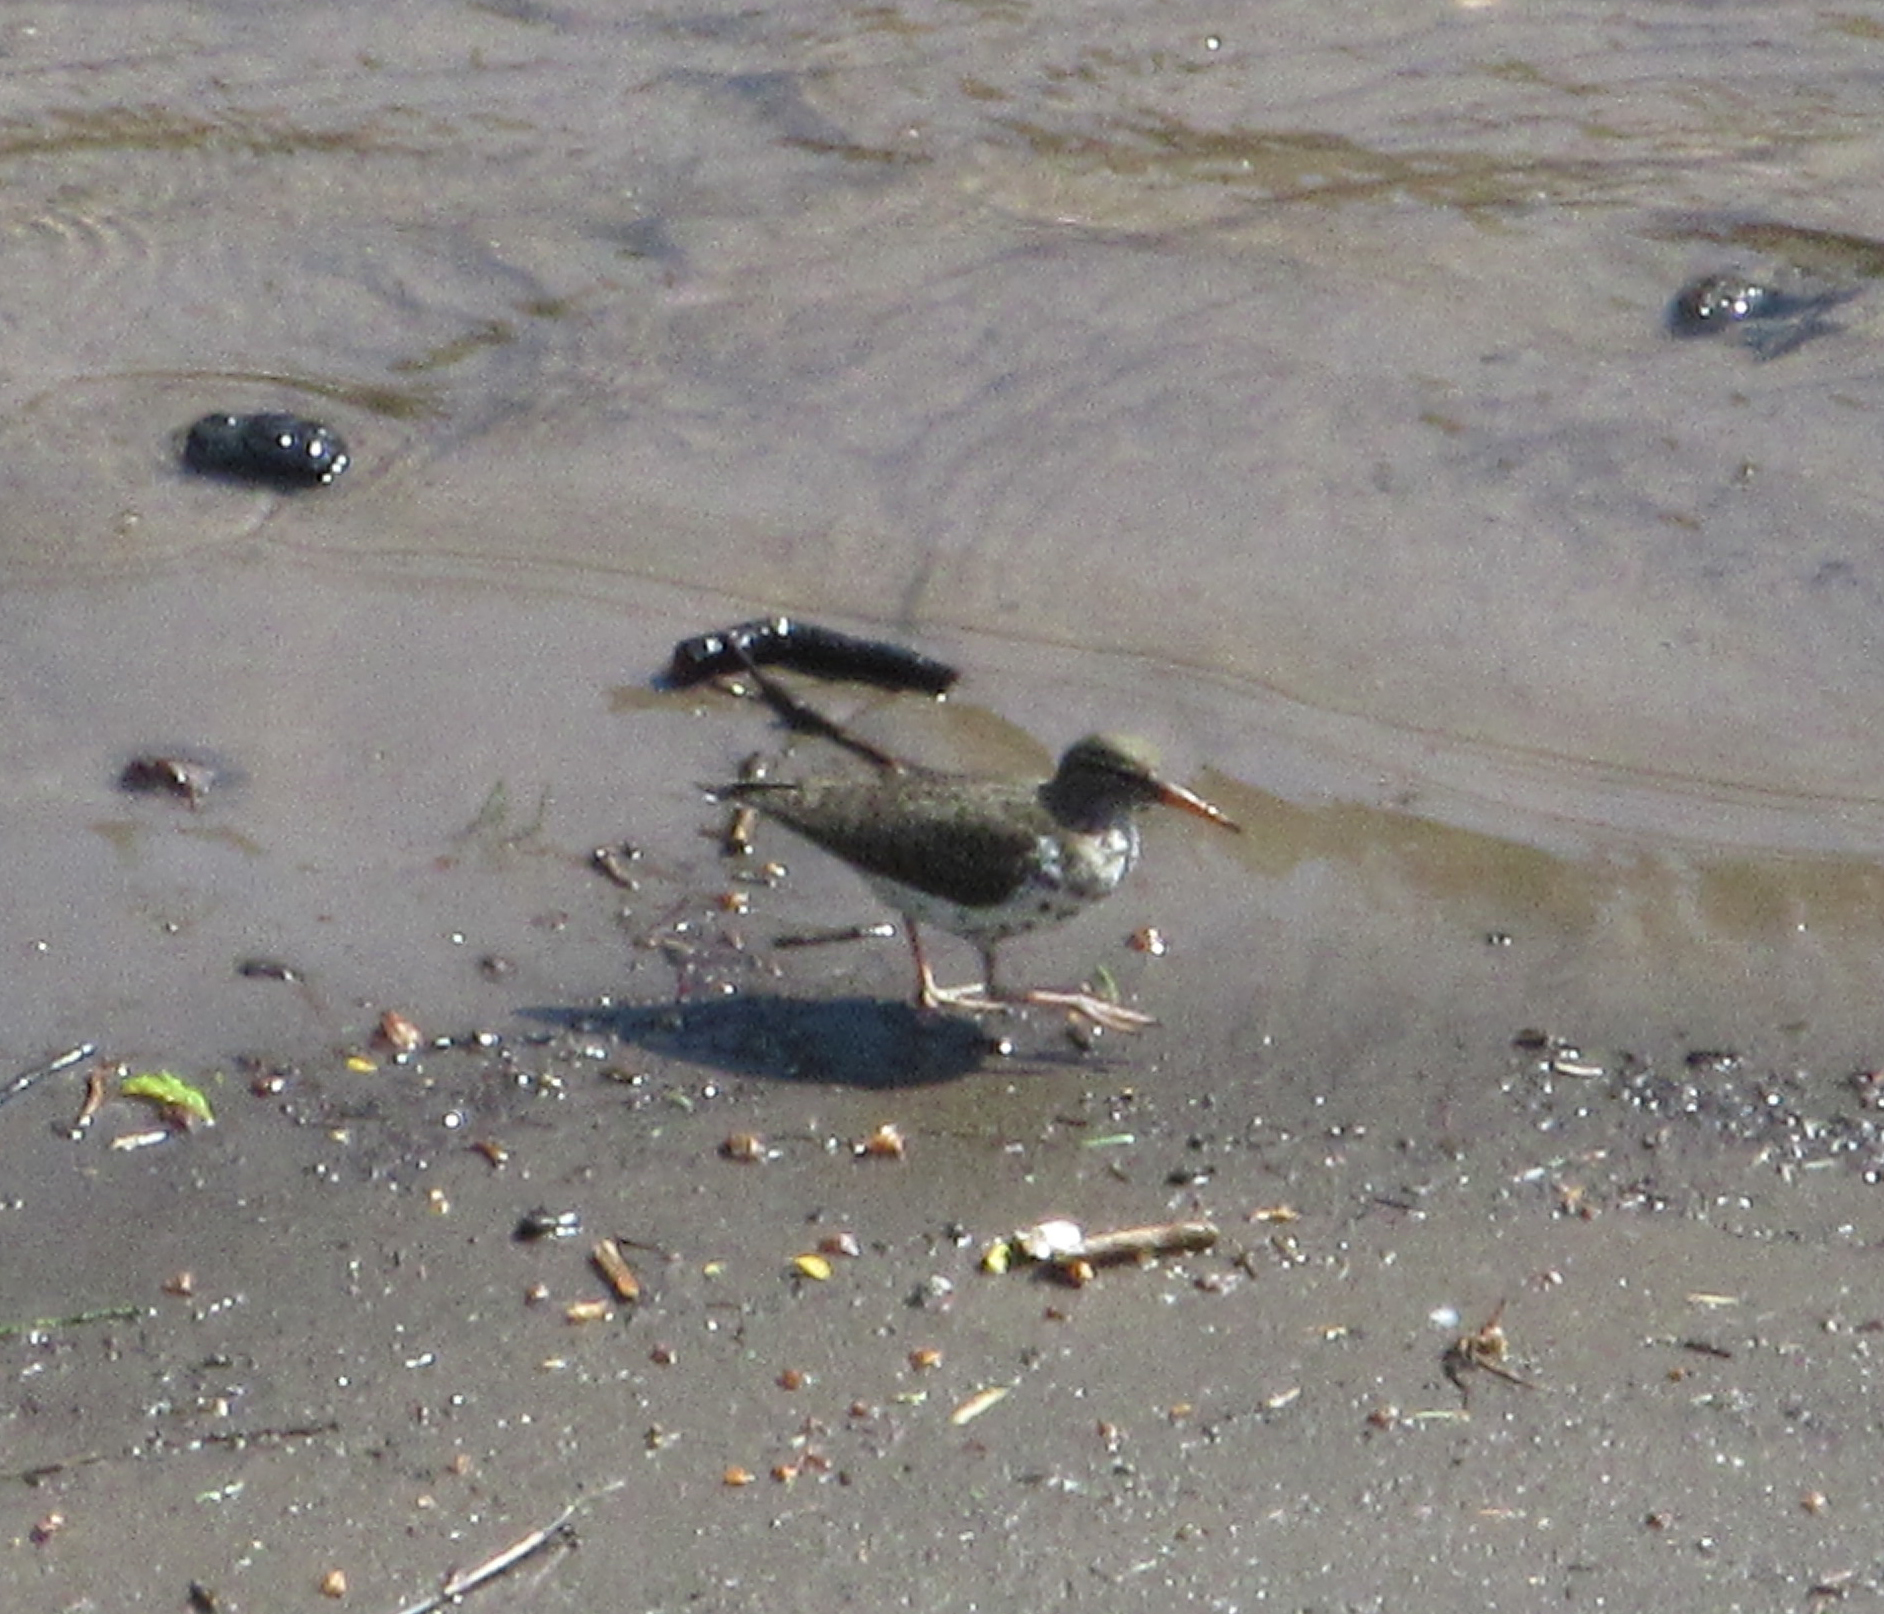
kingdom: Animalia
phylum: Chordata
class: Aves
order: Charadriiformes
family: Scolopacidae
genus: Actitis
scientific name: Actitis macularius
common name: Spotted sandpiper
